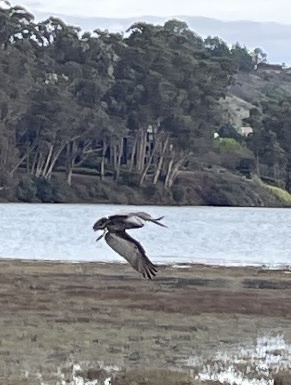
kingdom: Animalia
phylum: Chordata
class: Aves
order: Pelecaniformes
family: Pelecanidae
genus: Pelecanus
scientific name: Pelecanus occidentalis
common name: Brown pelican
